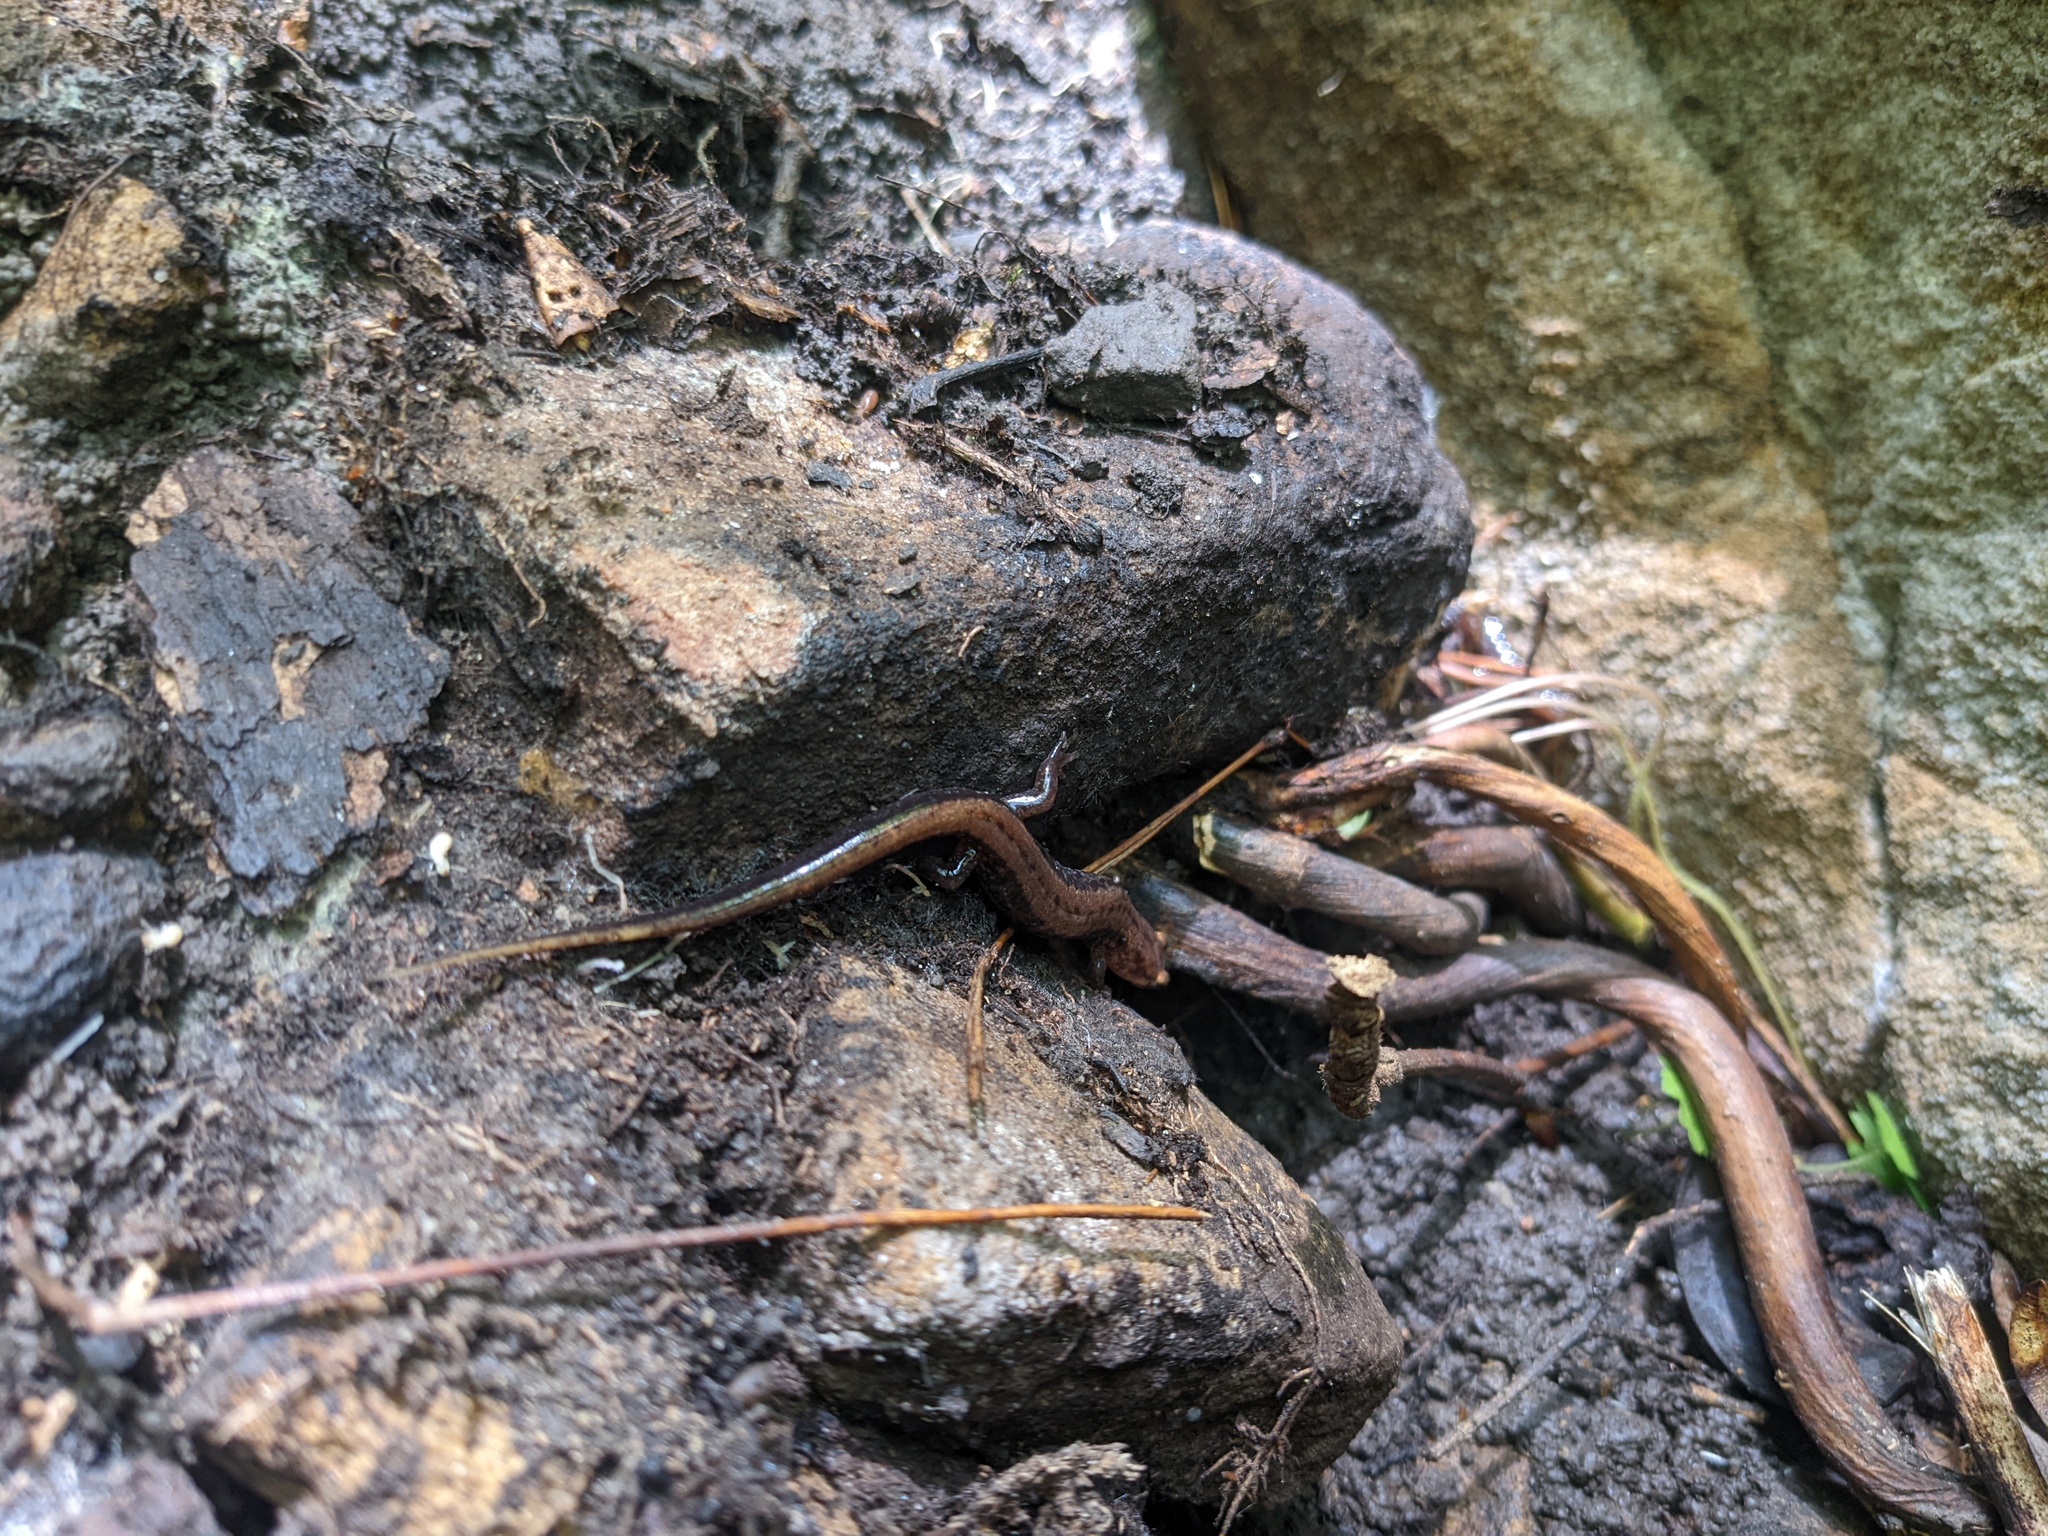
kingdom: Animalia
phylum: Chordata
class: Amphibia
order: Caudata
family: Plethodontidae
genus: Desmognathus
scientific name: Desmognathus ochrophaeus
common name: Allegheny mountain dusky salamander
